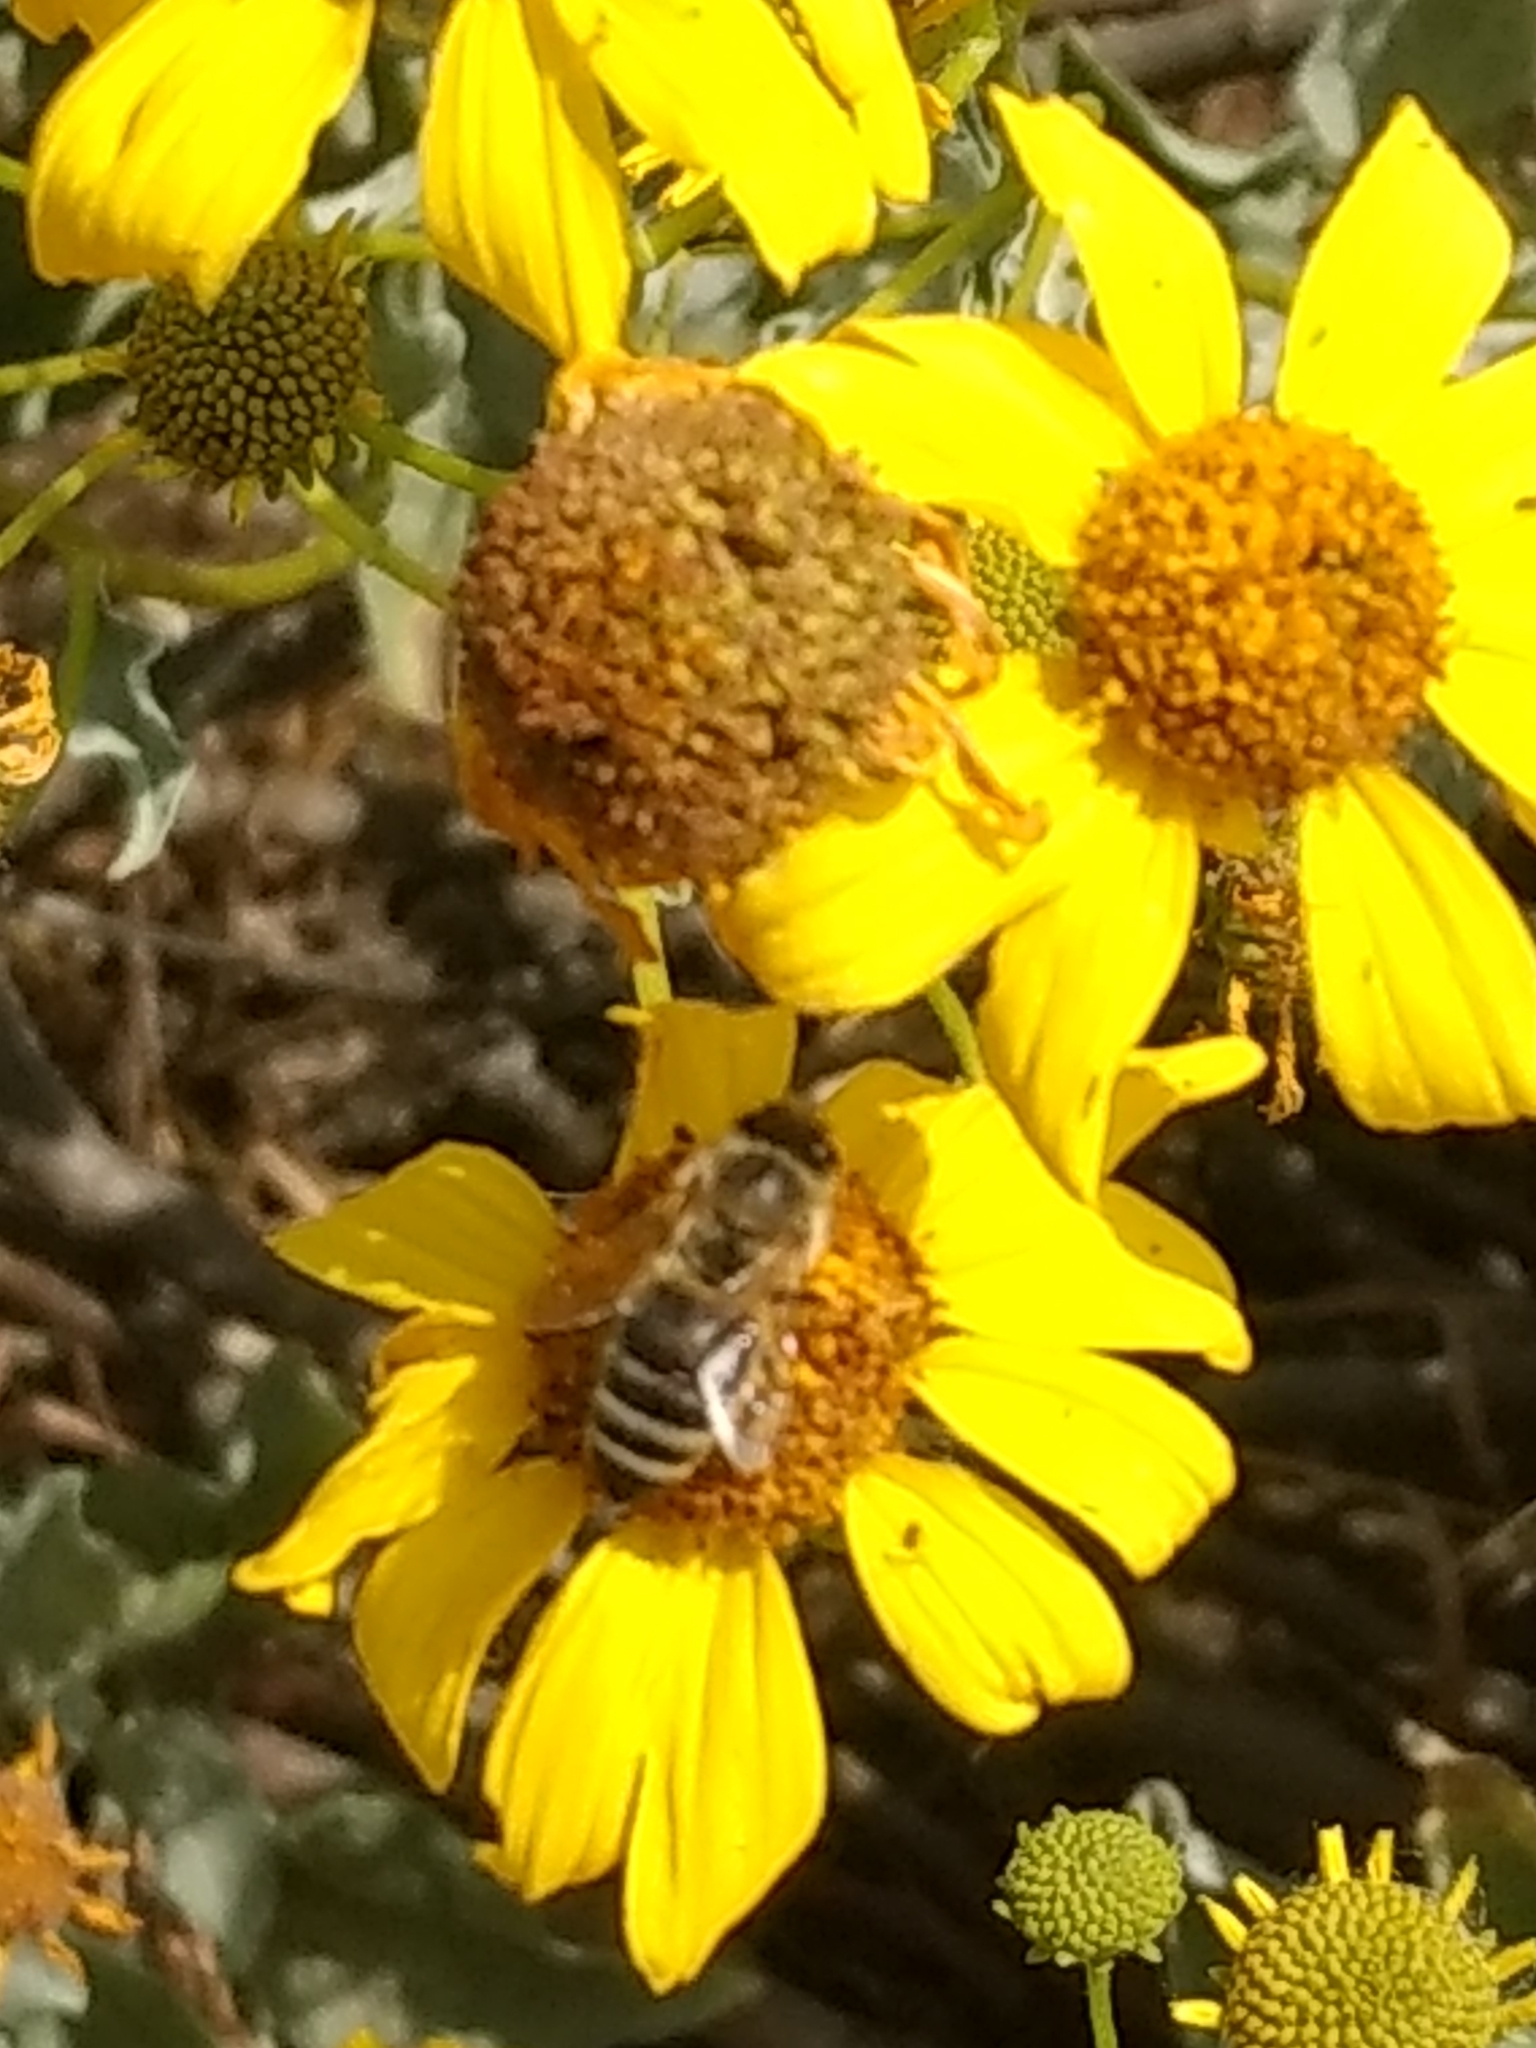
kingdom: Animalia
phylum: Arthropoda
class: Insecta
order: Hymenoptera
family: Apidae
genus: Apis
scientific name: Apis mellifera
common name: Honey bee
